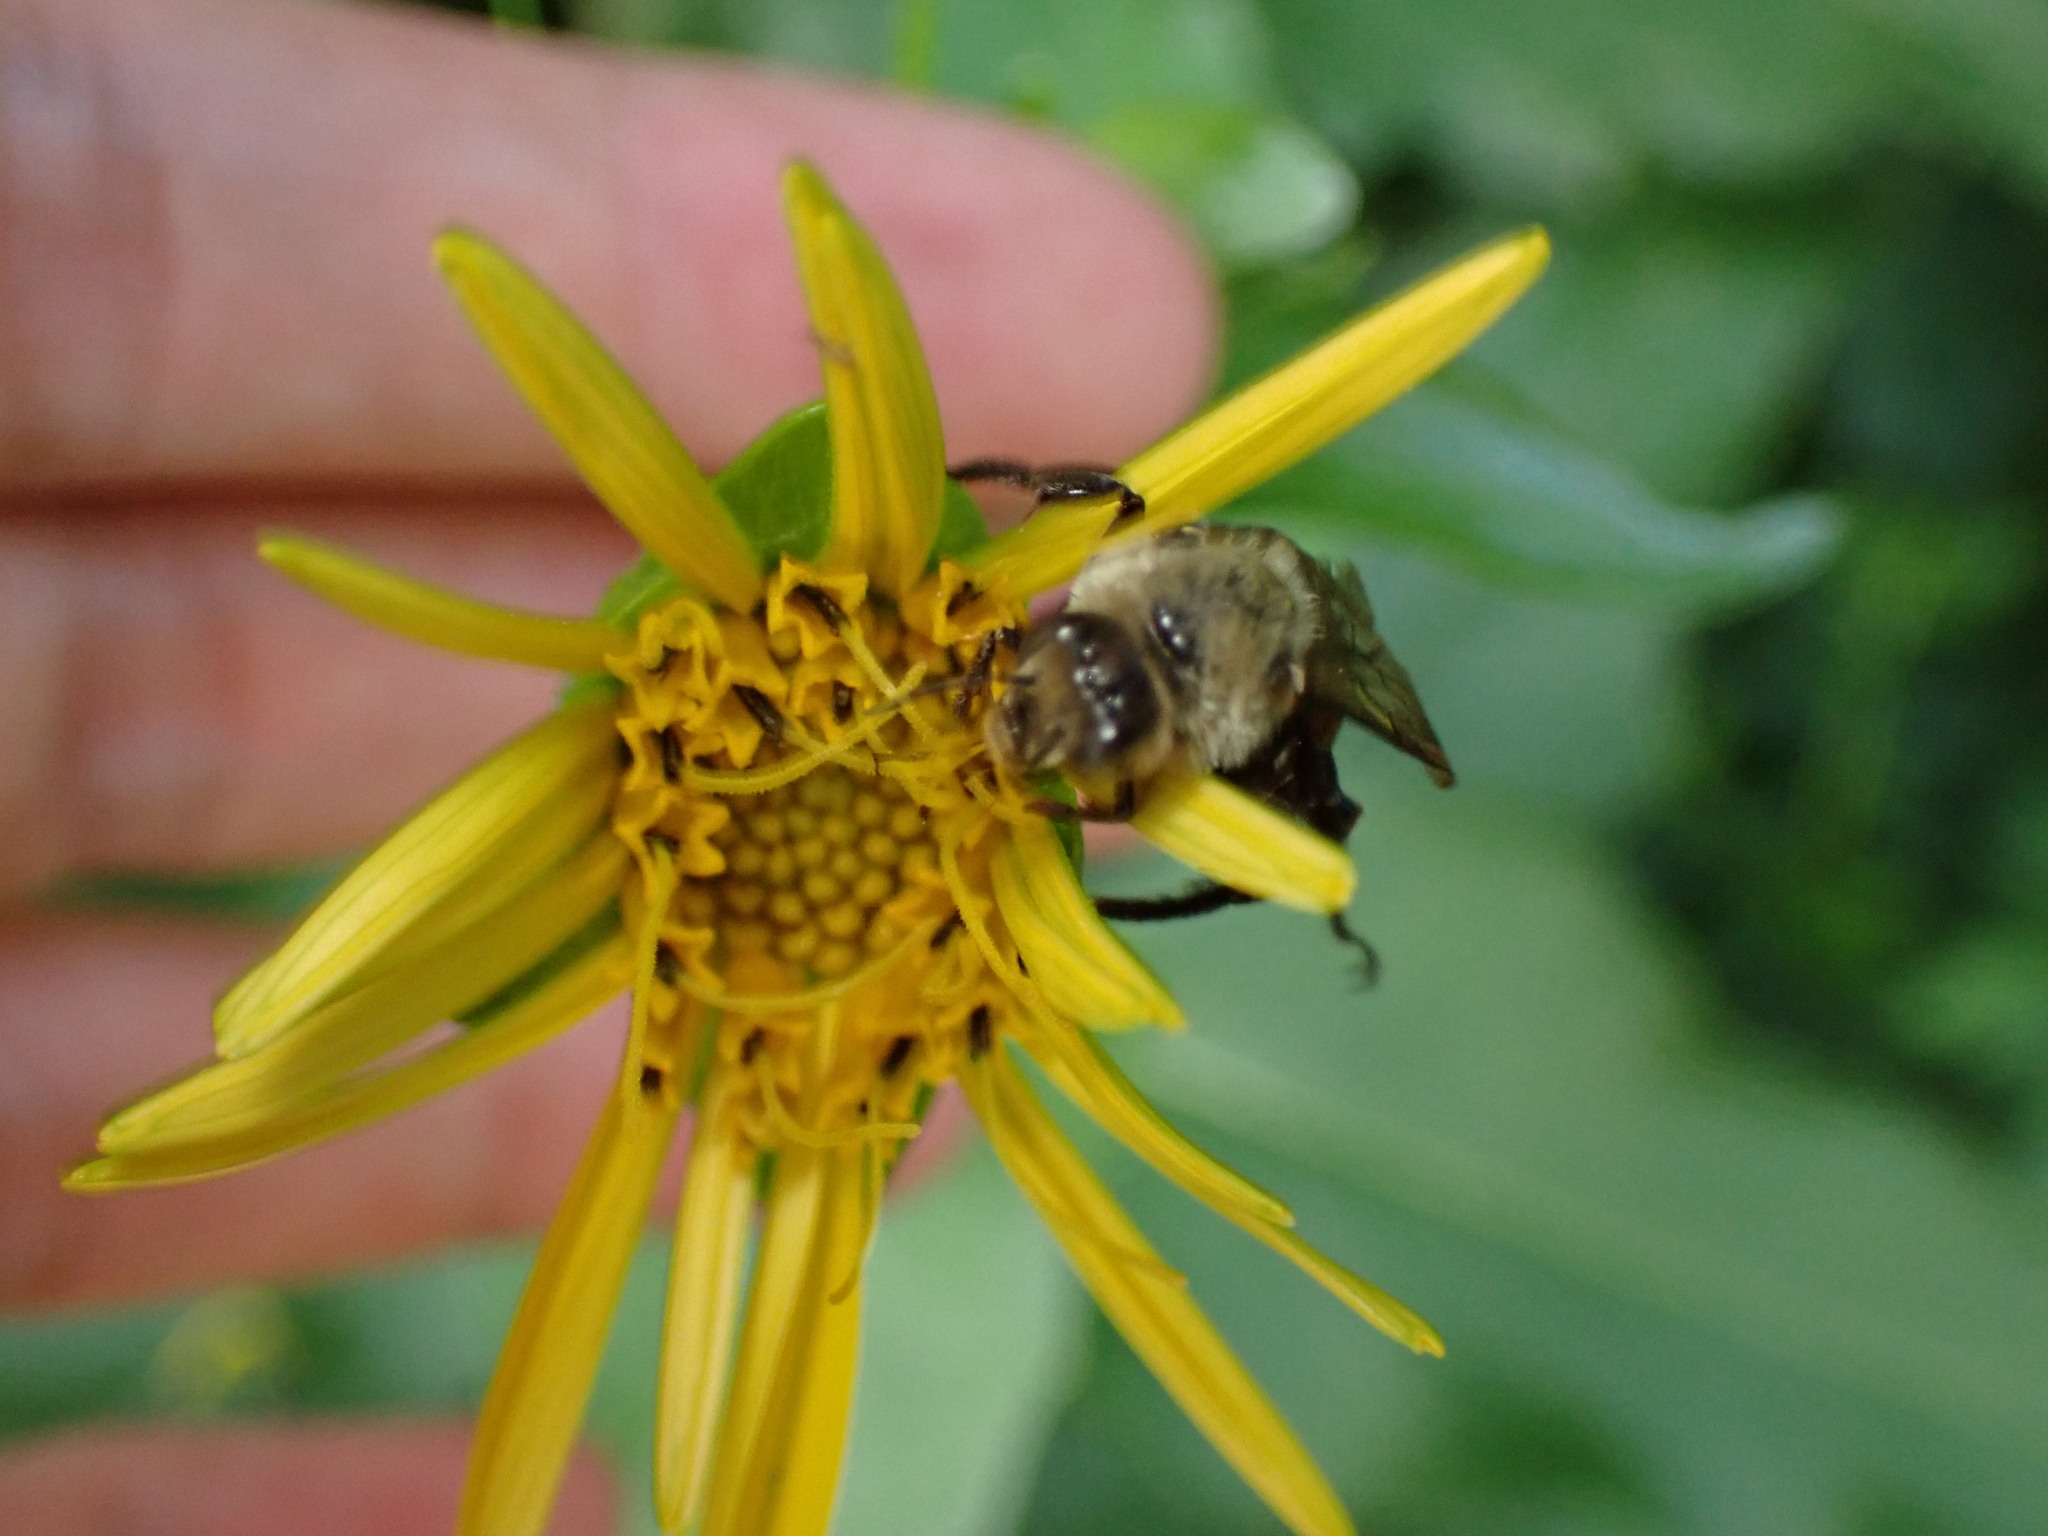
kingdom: Animalia
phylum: Arthropoda
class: Insecta
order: Hymenoptera
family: Apidae
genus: Ptilothrix
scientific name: Ptilothrix bombiformis
